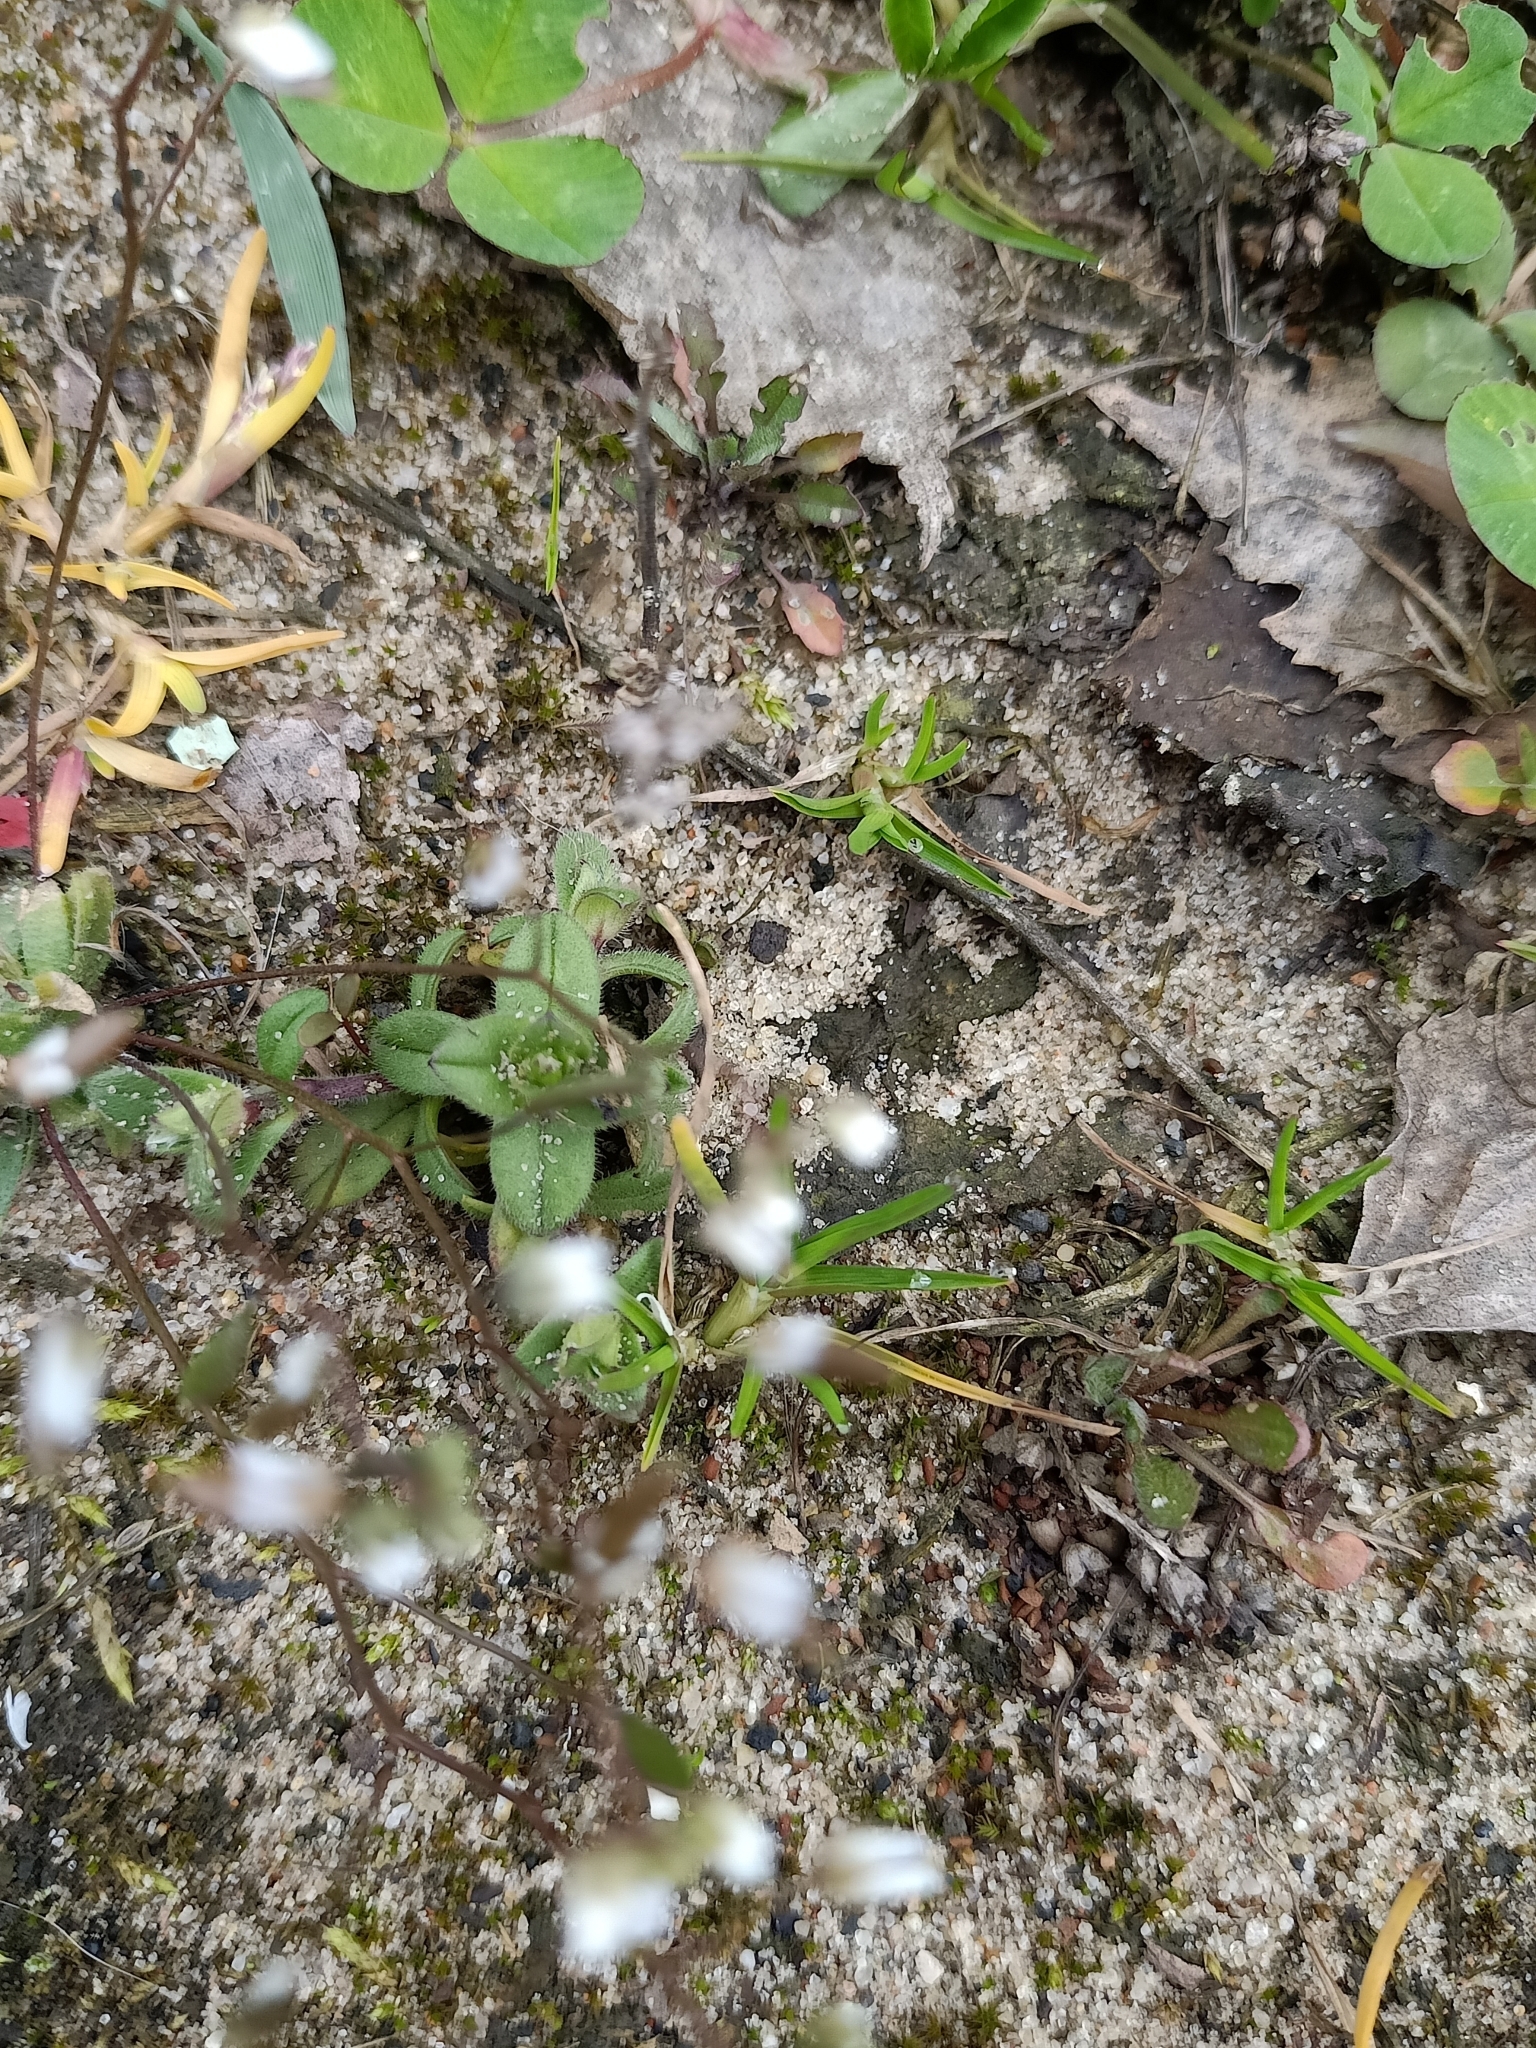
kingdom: Plantae
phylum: Tracheophyta
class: Magnoliopsida
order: Brassicales
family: Brassicaceae
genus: Draba
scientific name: Draba verna
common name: Spring draba
